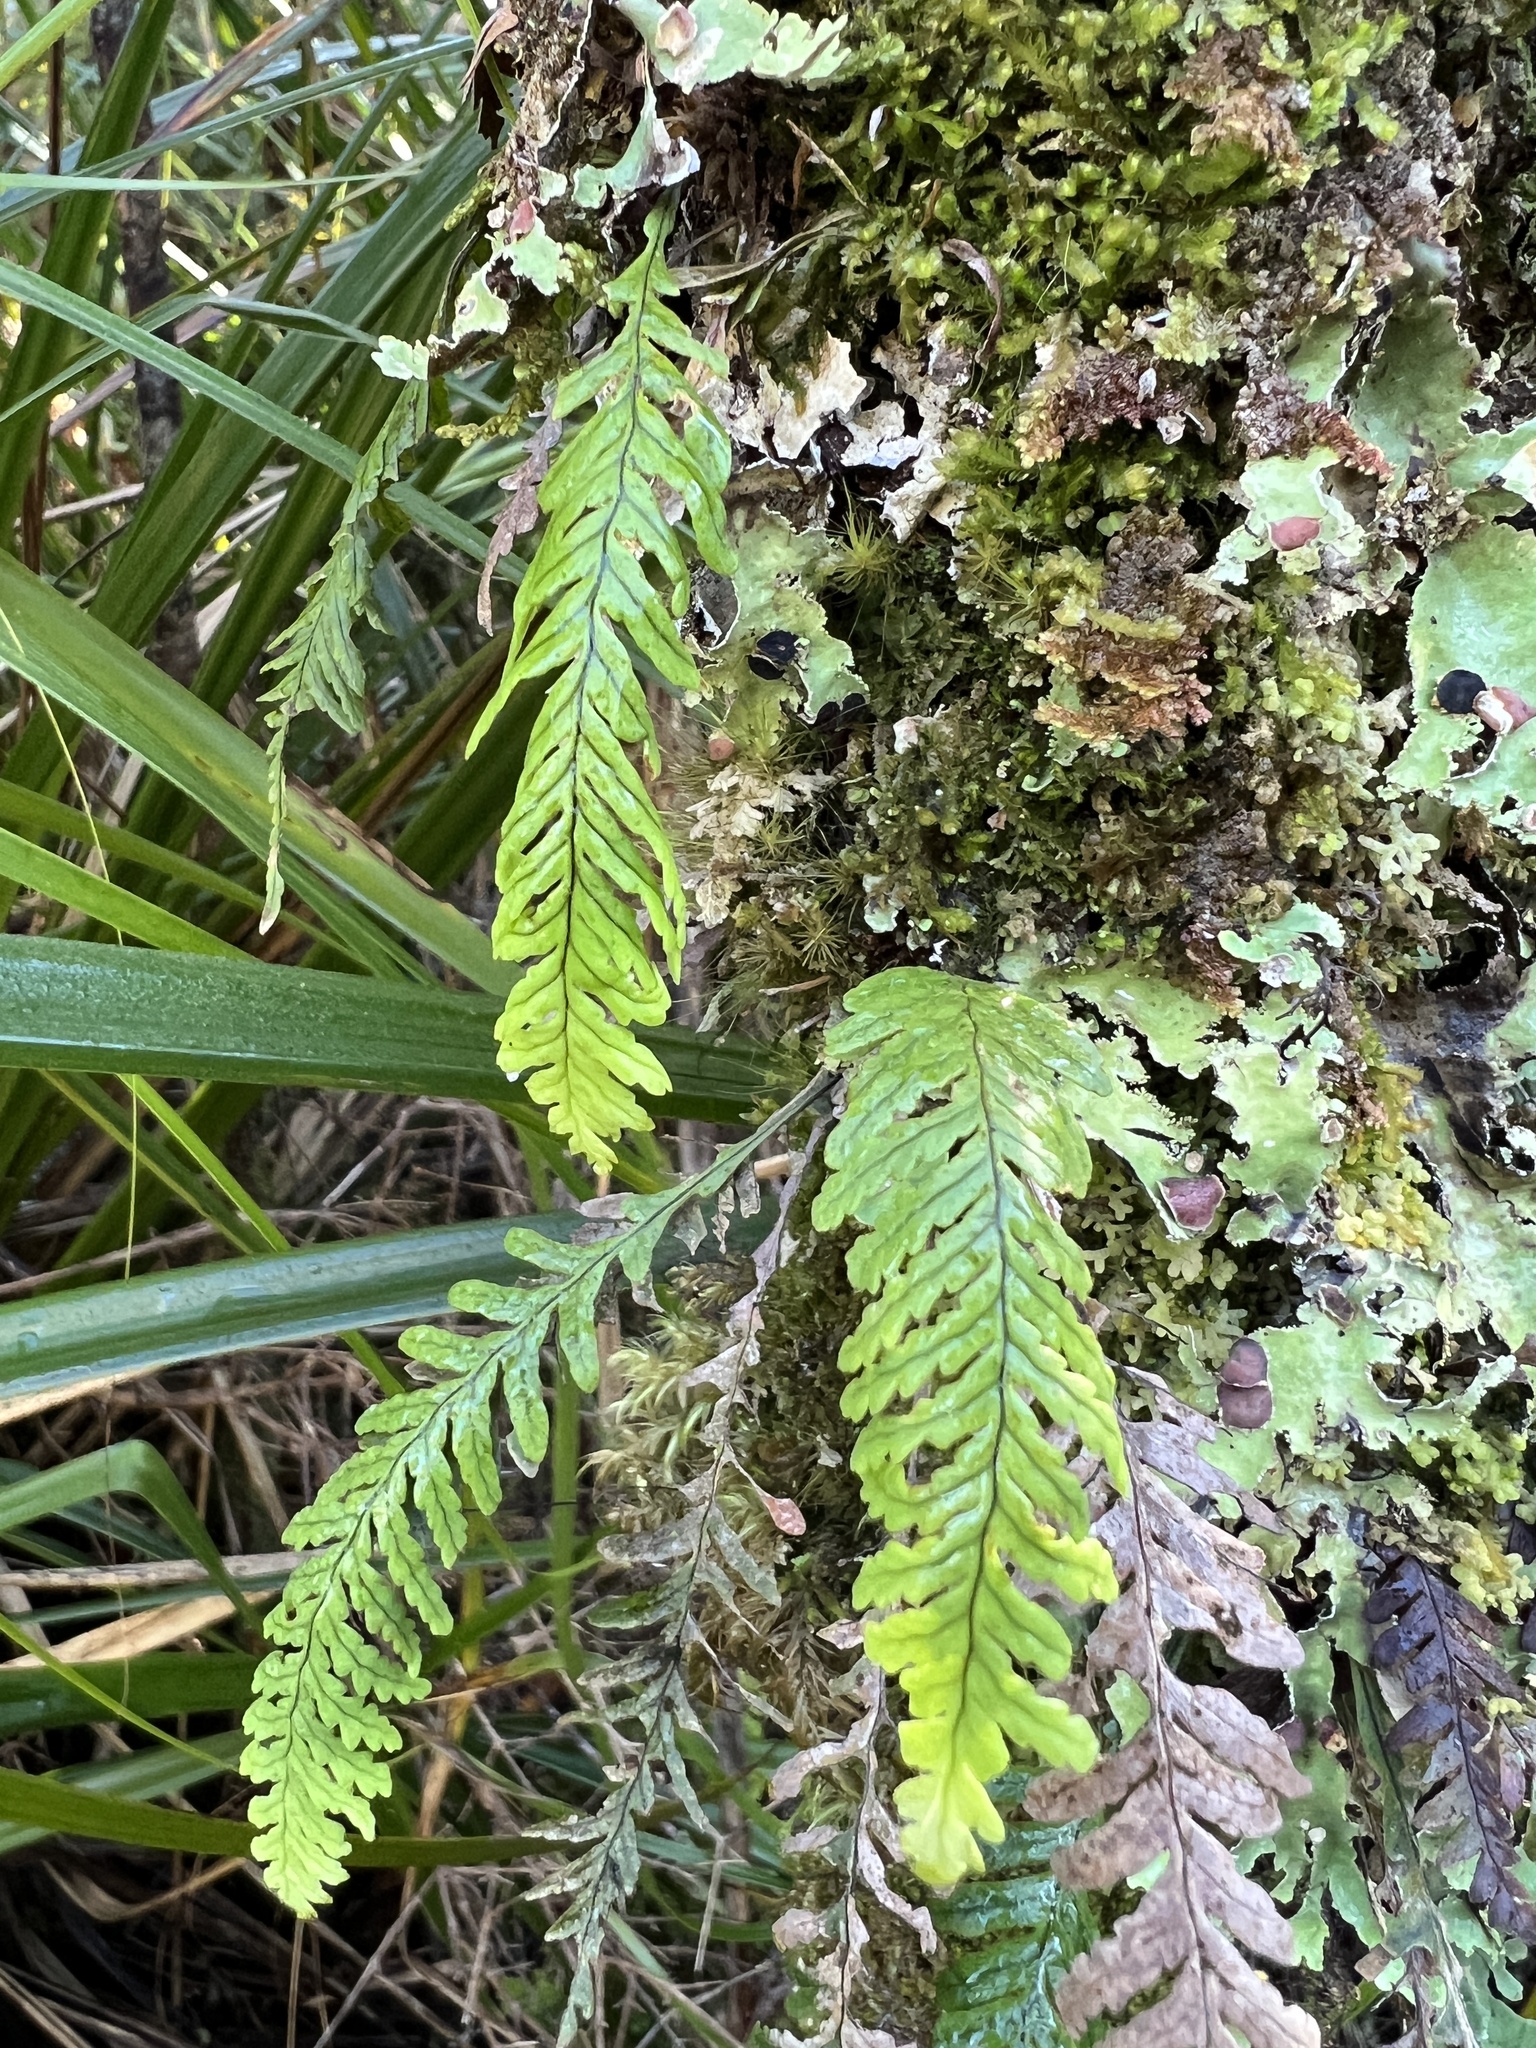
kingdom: Plantae
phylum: Tracheophyta
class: Polypodiopsida
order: Polypodiales
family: Polypodiaceae
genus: Notogrammitis
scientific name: Notogrammitis heterophylla
